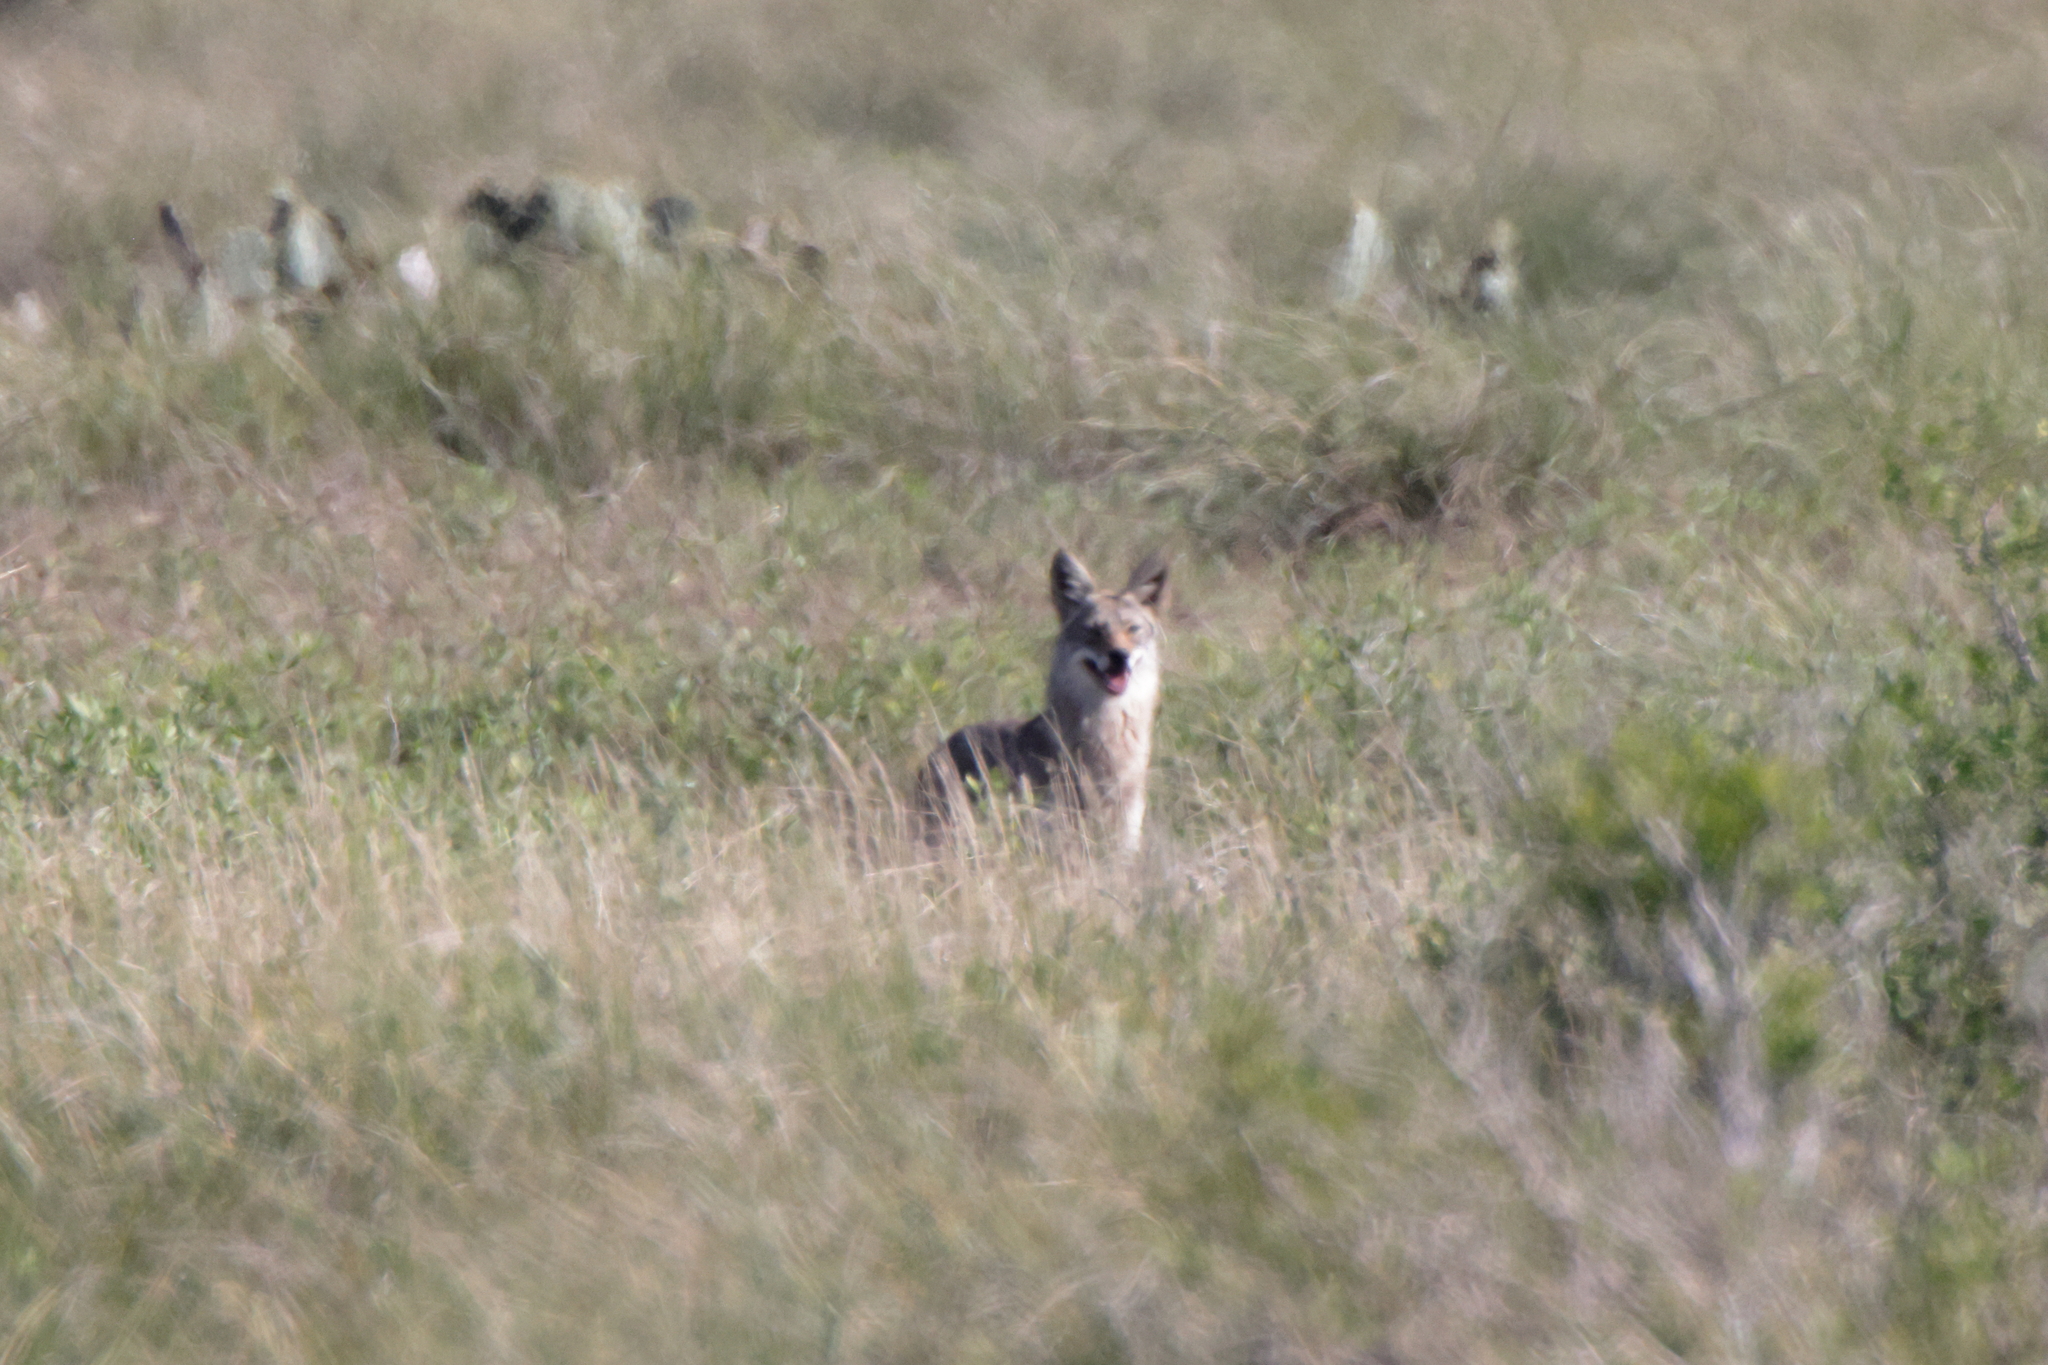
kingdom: Animalia
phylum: Chordata
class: Mammalia
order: Carnivora
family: Canidae
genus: Canis
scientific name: Canis latrans
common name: Coyote
